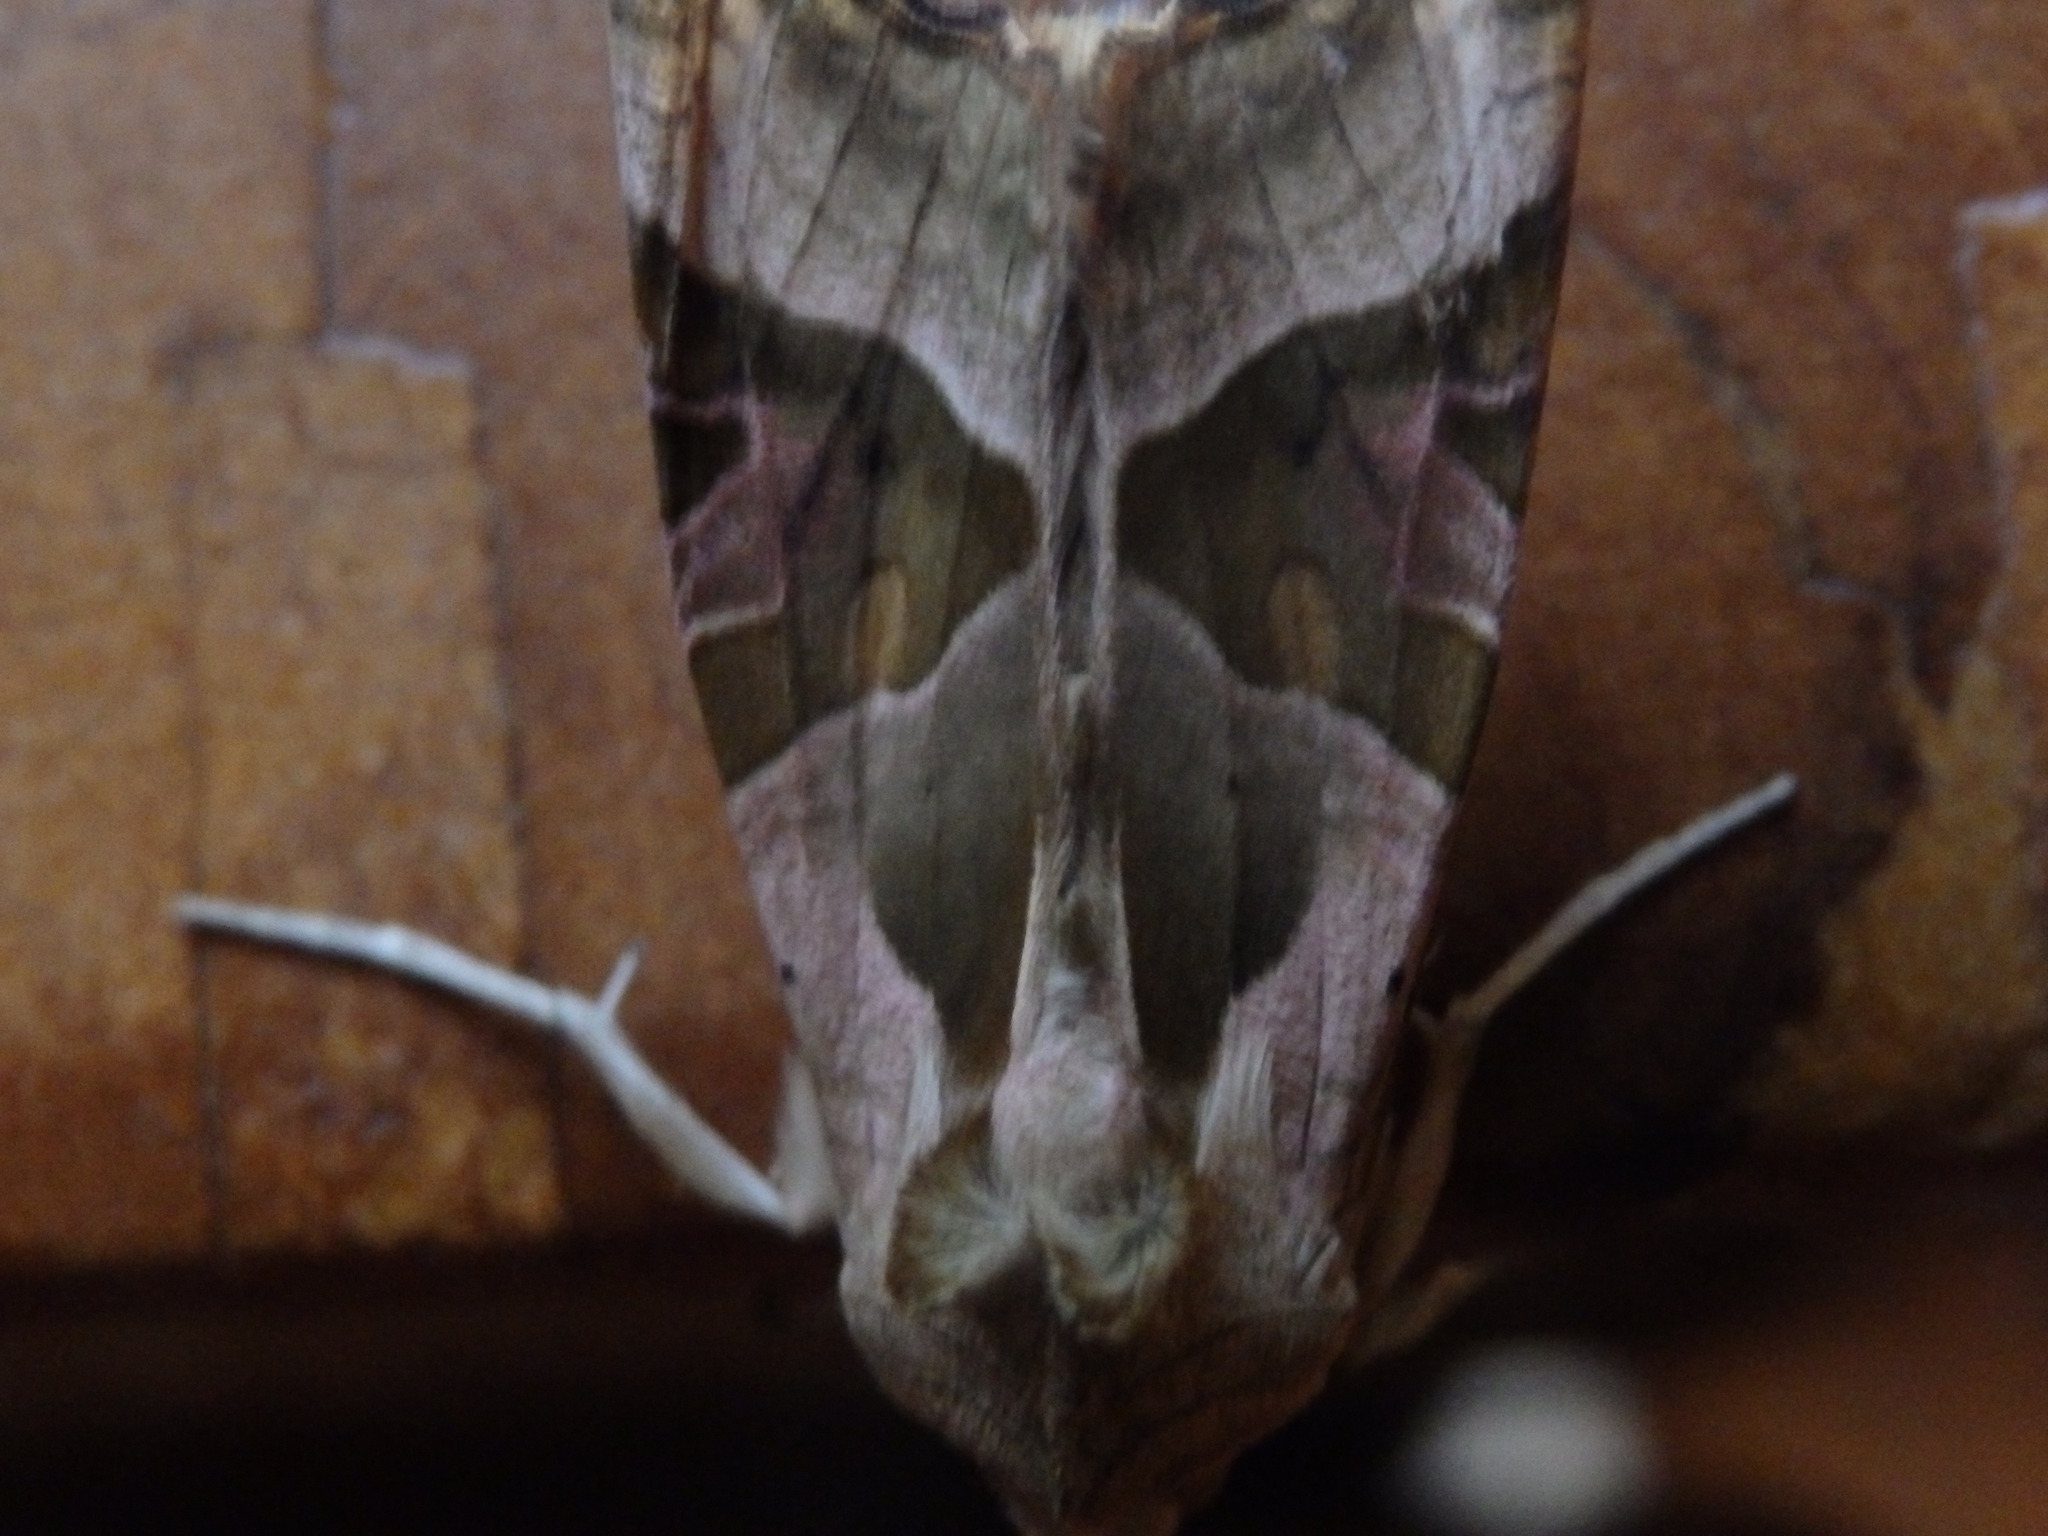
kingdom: Animalia
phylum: Arthropoda
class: Insecta
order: Lepidoptera
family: Noctuidae
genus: Phlogophora
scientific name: Phlogophora meticulosa
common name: Angle shades
